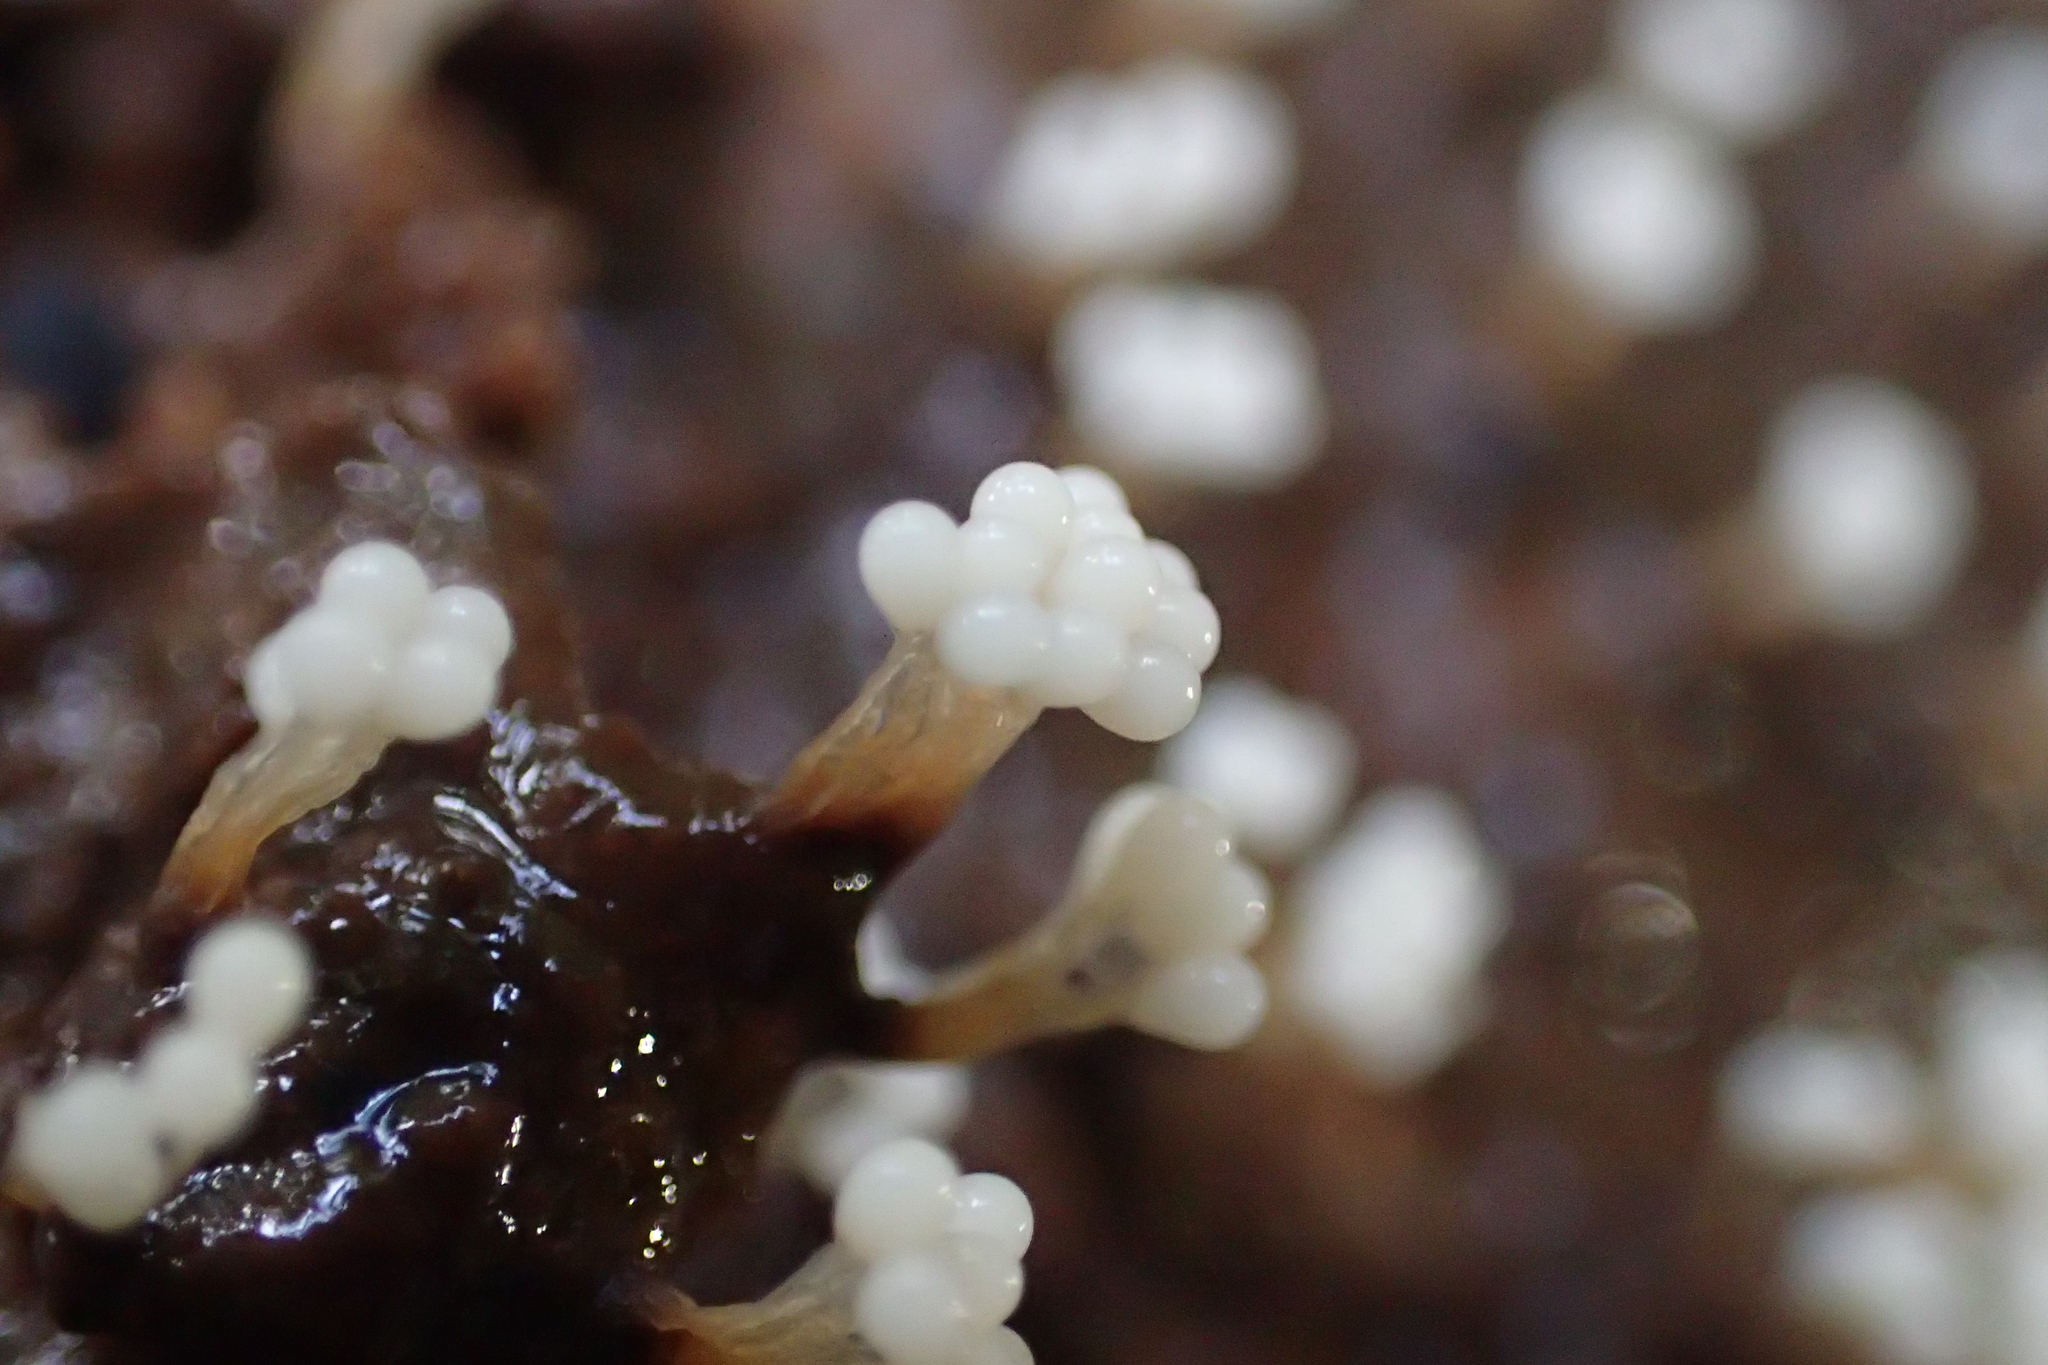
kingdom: Protozoa
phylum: Mycetozoa
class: Myxomycetes
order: Trichiales
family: Trichiaceae
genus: Oligonema
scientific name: Oligonema verrucosum
